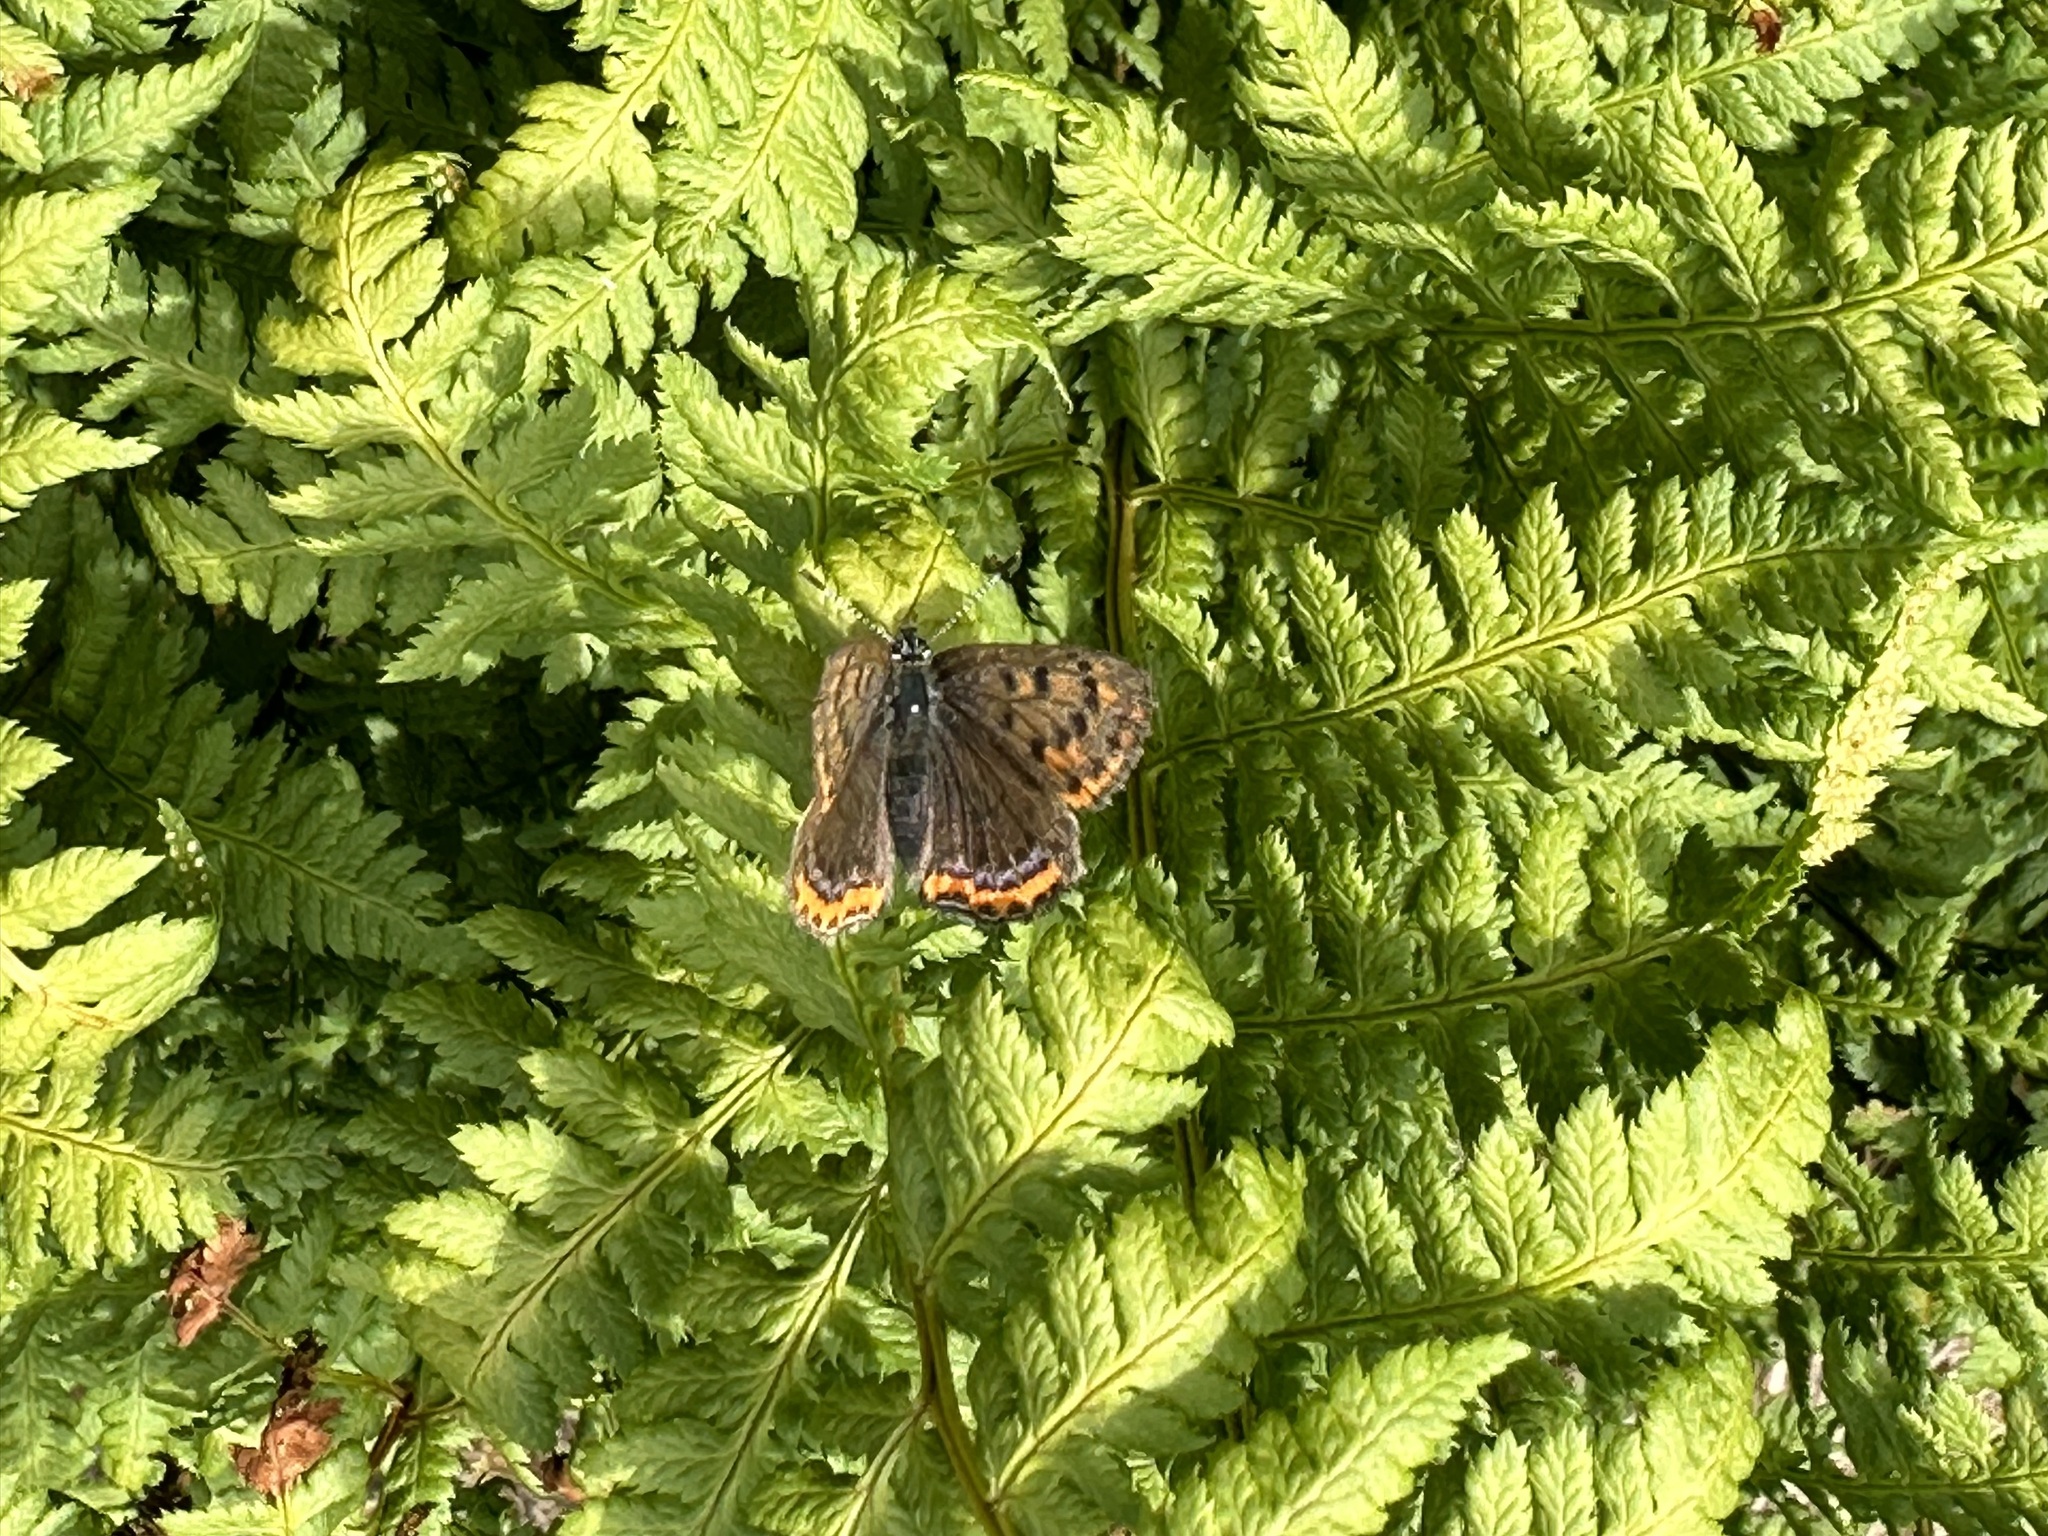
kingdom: Animalia
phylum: Arthropoda
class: Insecta
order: Lepidoptera
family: Lycaenidae
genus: Helleia
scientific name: Helleia helle
